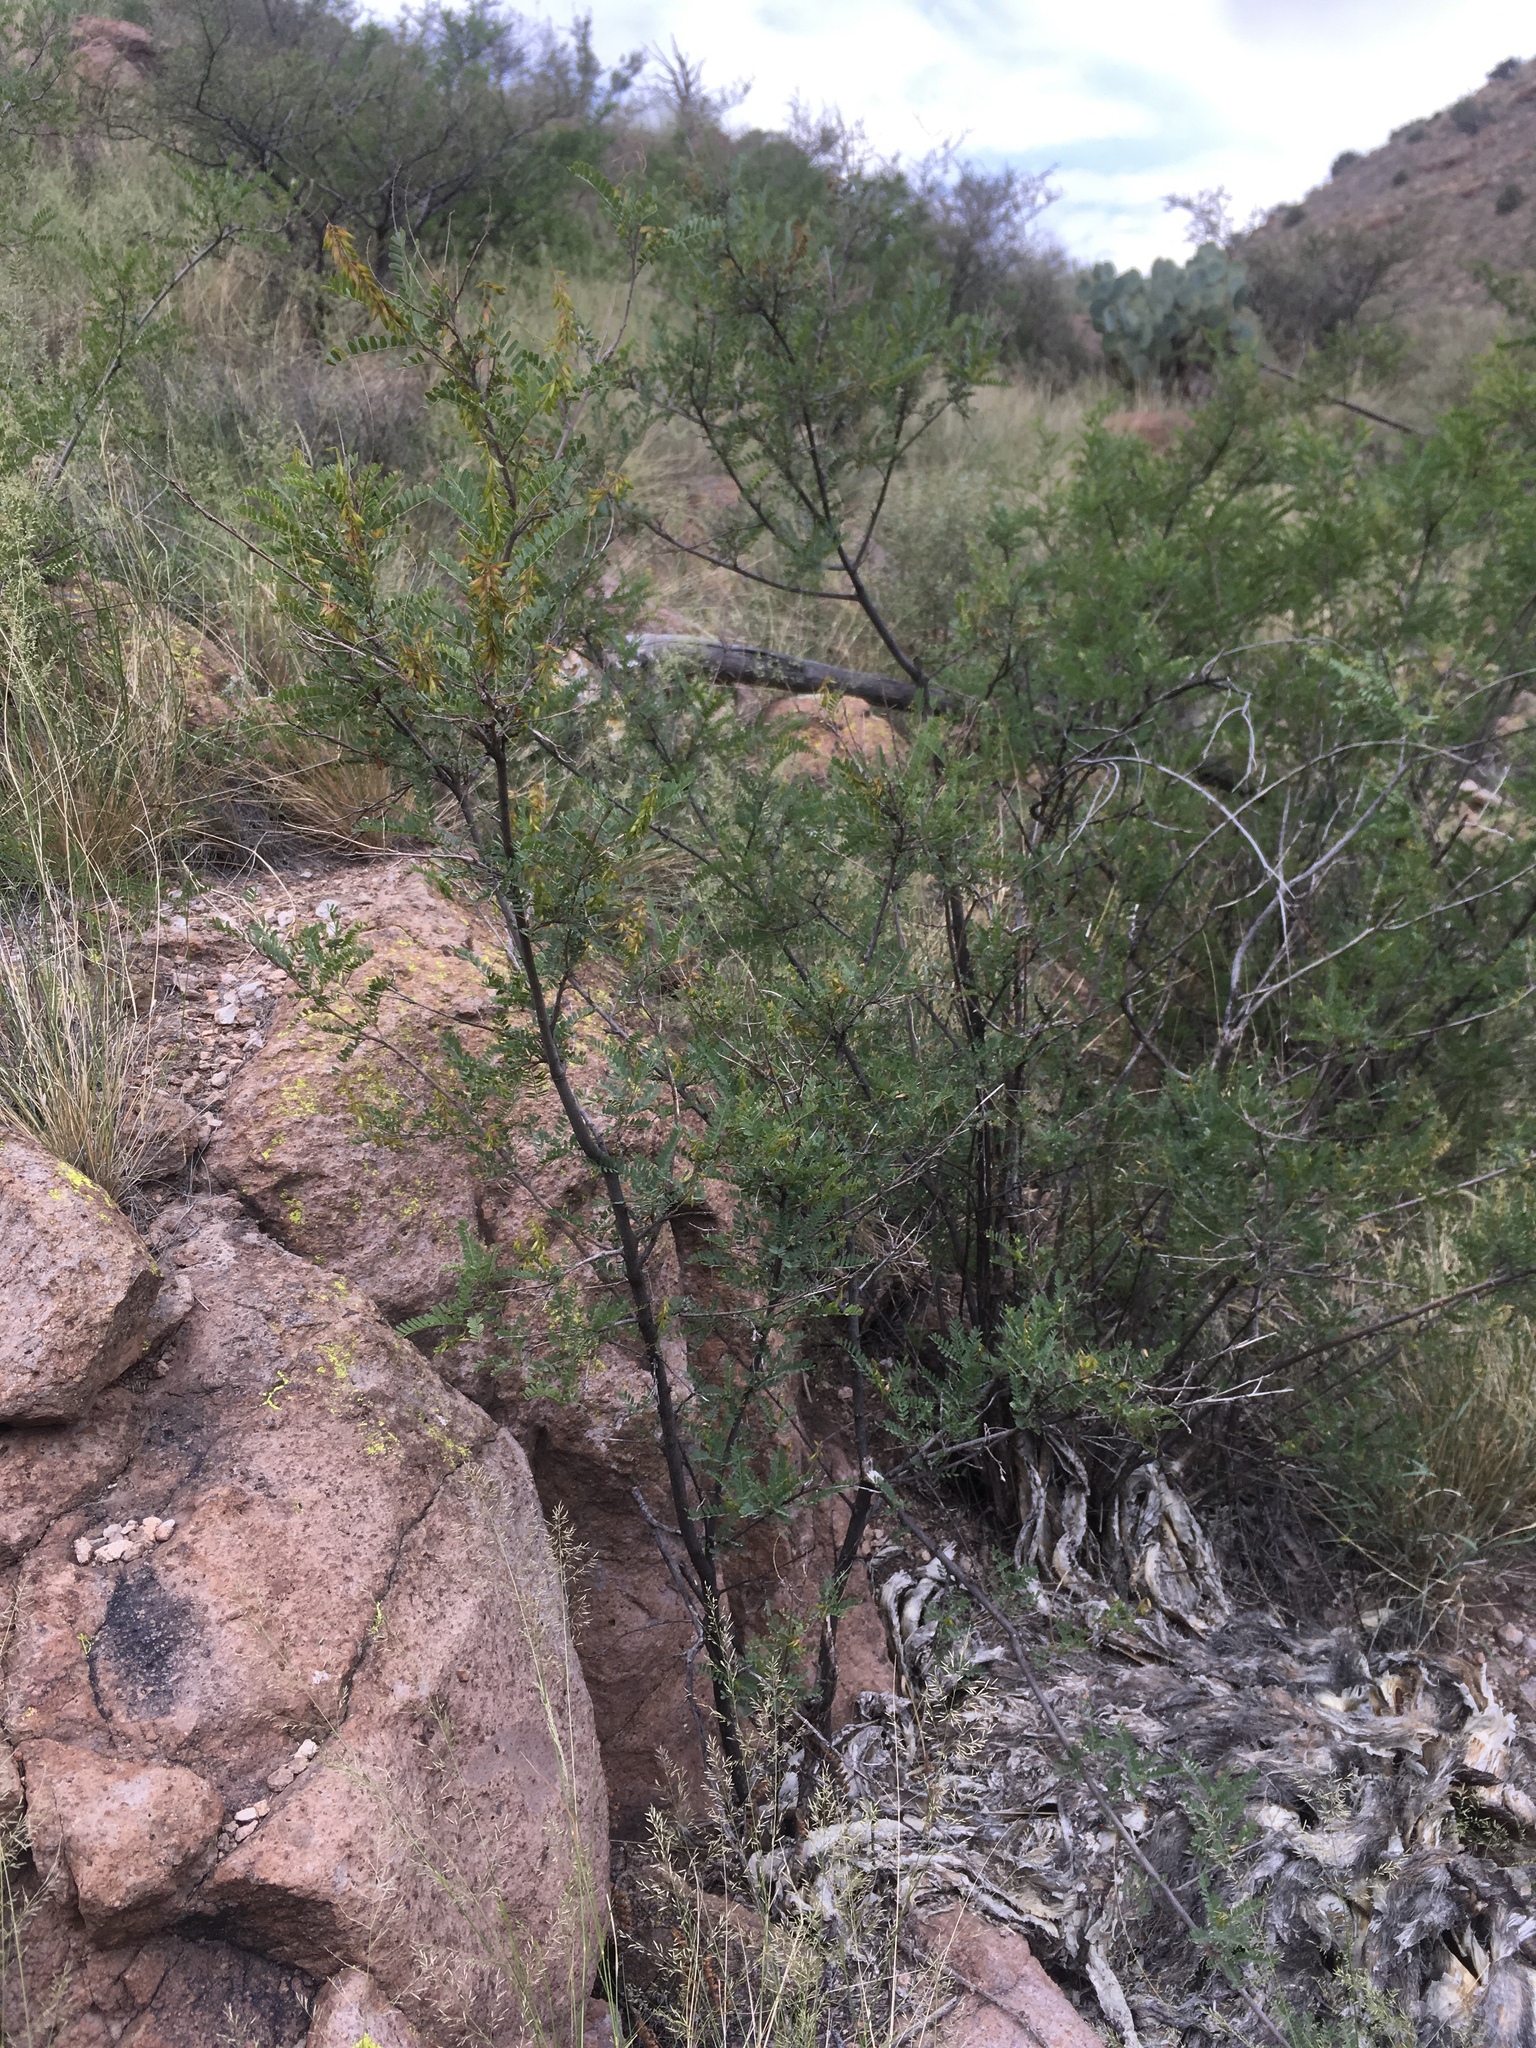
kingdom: Plantae
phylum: Tracheophyta
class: Magnoliopsida
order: Fabales
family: Fabaceae
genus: Amorpha
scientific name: Amorpha fruticosa
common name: False indigo
